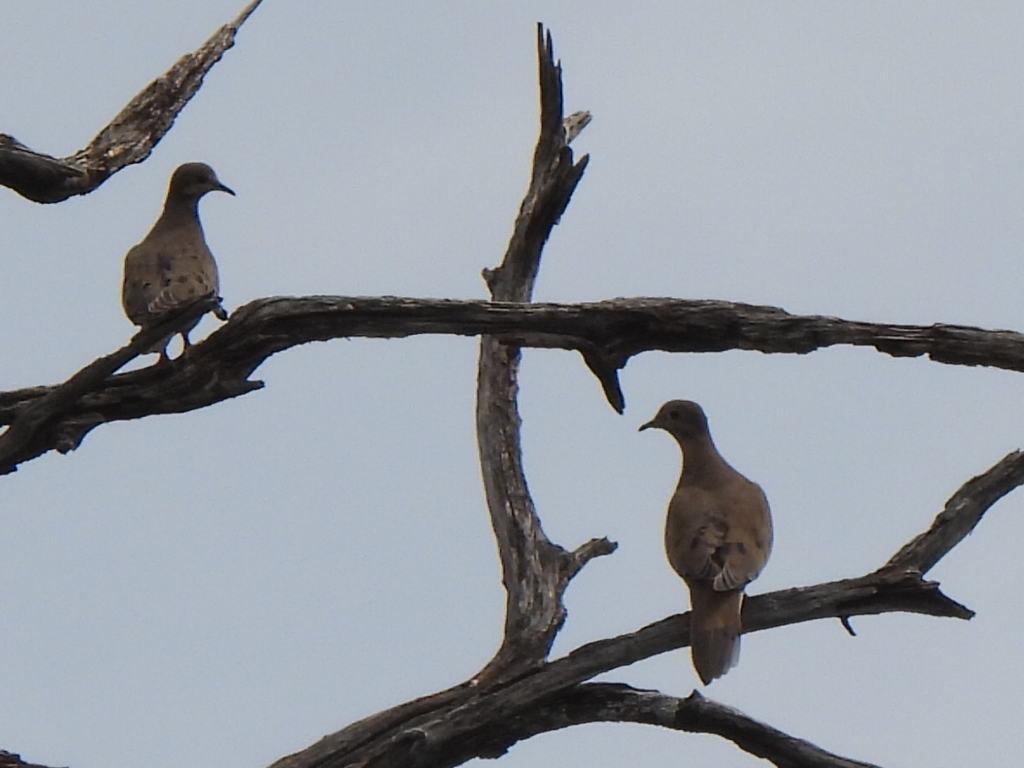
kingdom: Animalia
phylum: Chordata
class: Aves
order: Columbiformes
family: Columbidae
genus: Zenaida
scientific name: Zenaida macroura
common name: Mourning dove
